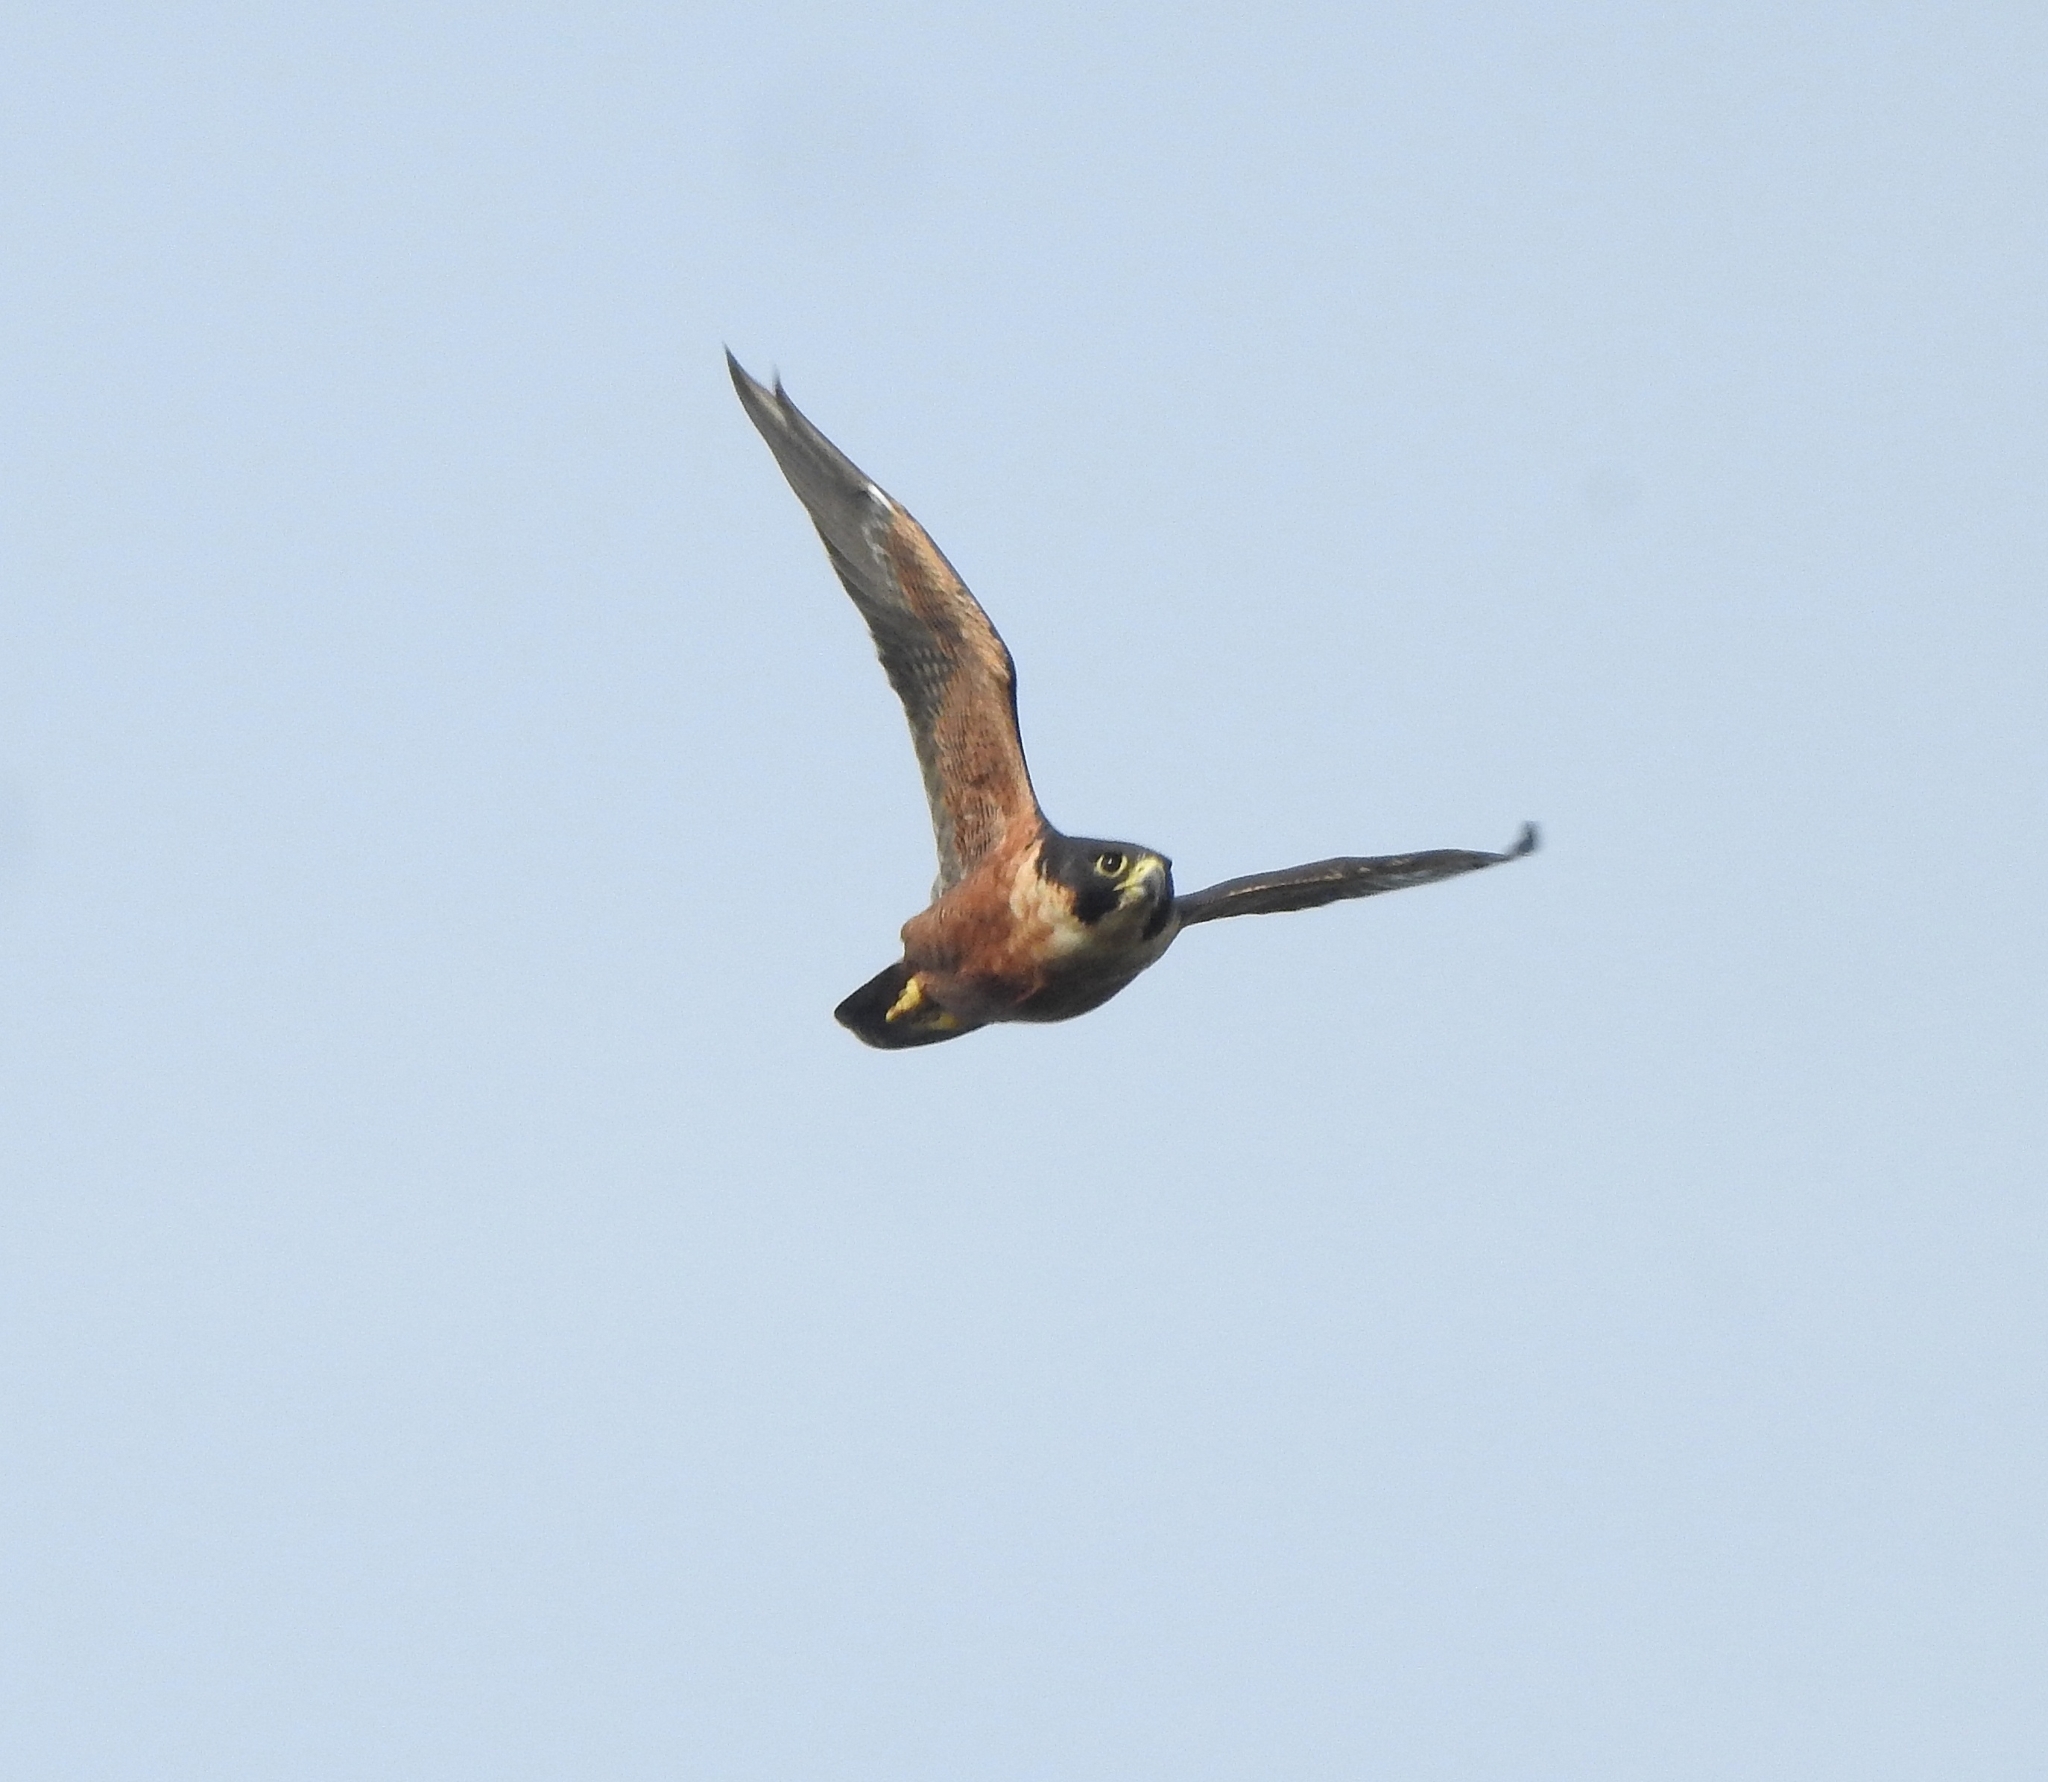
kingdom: Animalia
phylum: Chordata
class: Aves
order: Falconiformes
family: Falconidae
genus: Falco
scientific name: Falco peregrinus
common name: Peregrine falcon
